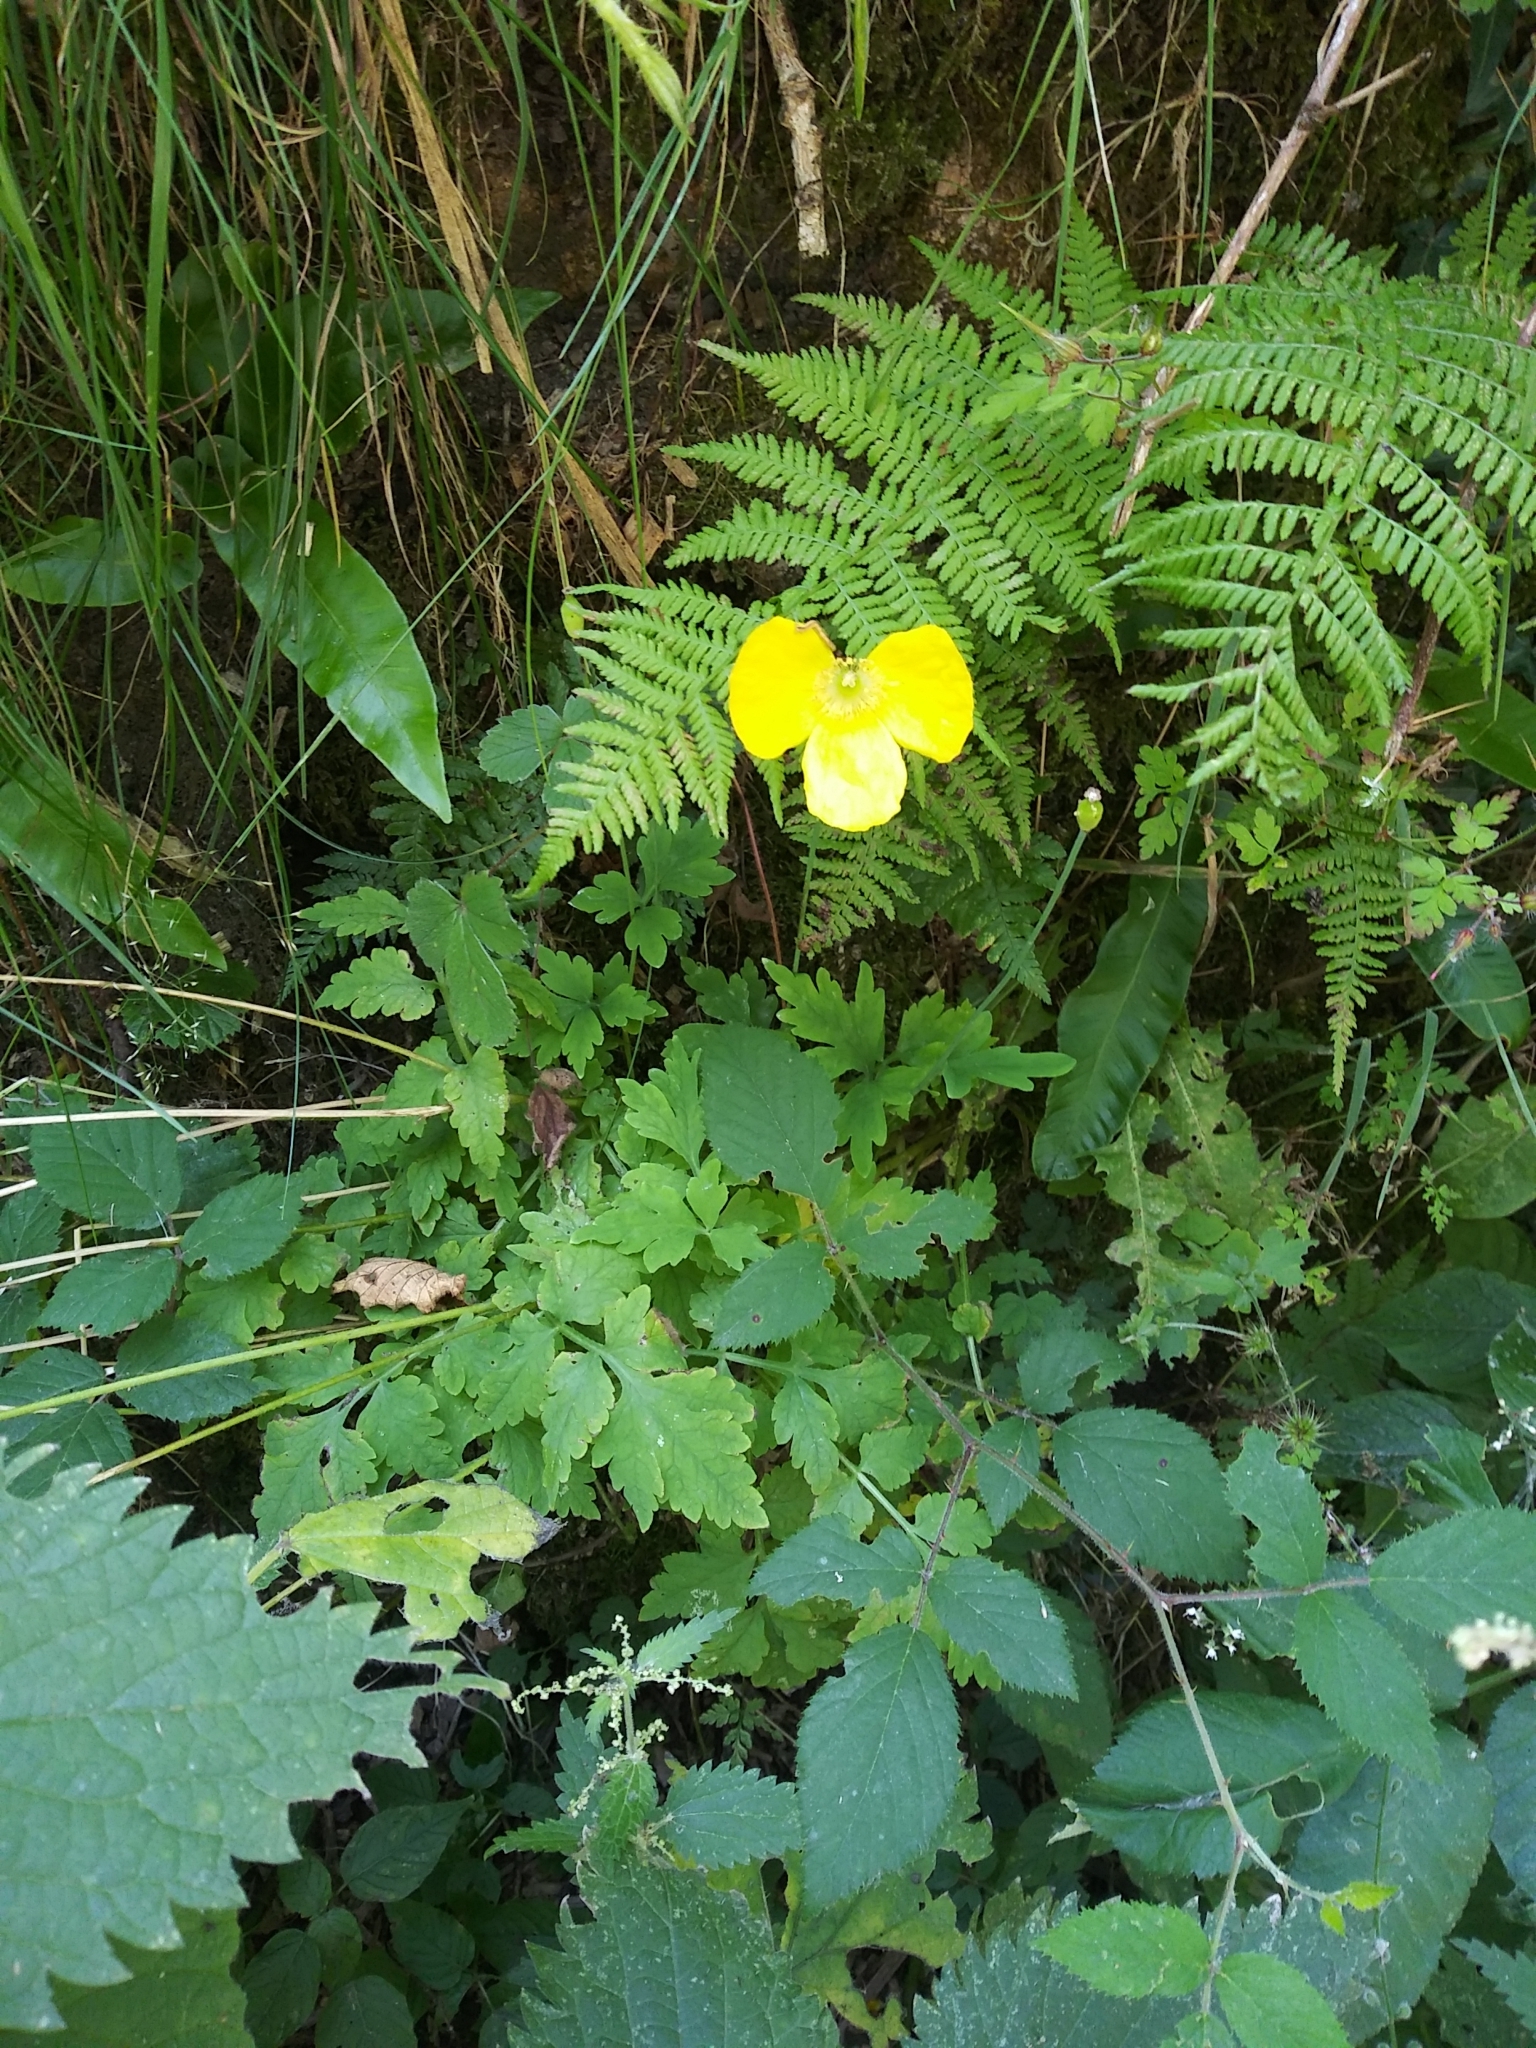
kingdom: Plantae
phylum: Tracheophyta
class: Magnoliopsida
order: Ranunculales
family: Papaveraceae
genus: Papaver
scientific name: Papaver cambricum
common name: Poppy
